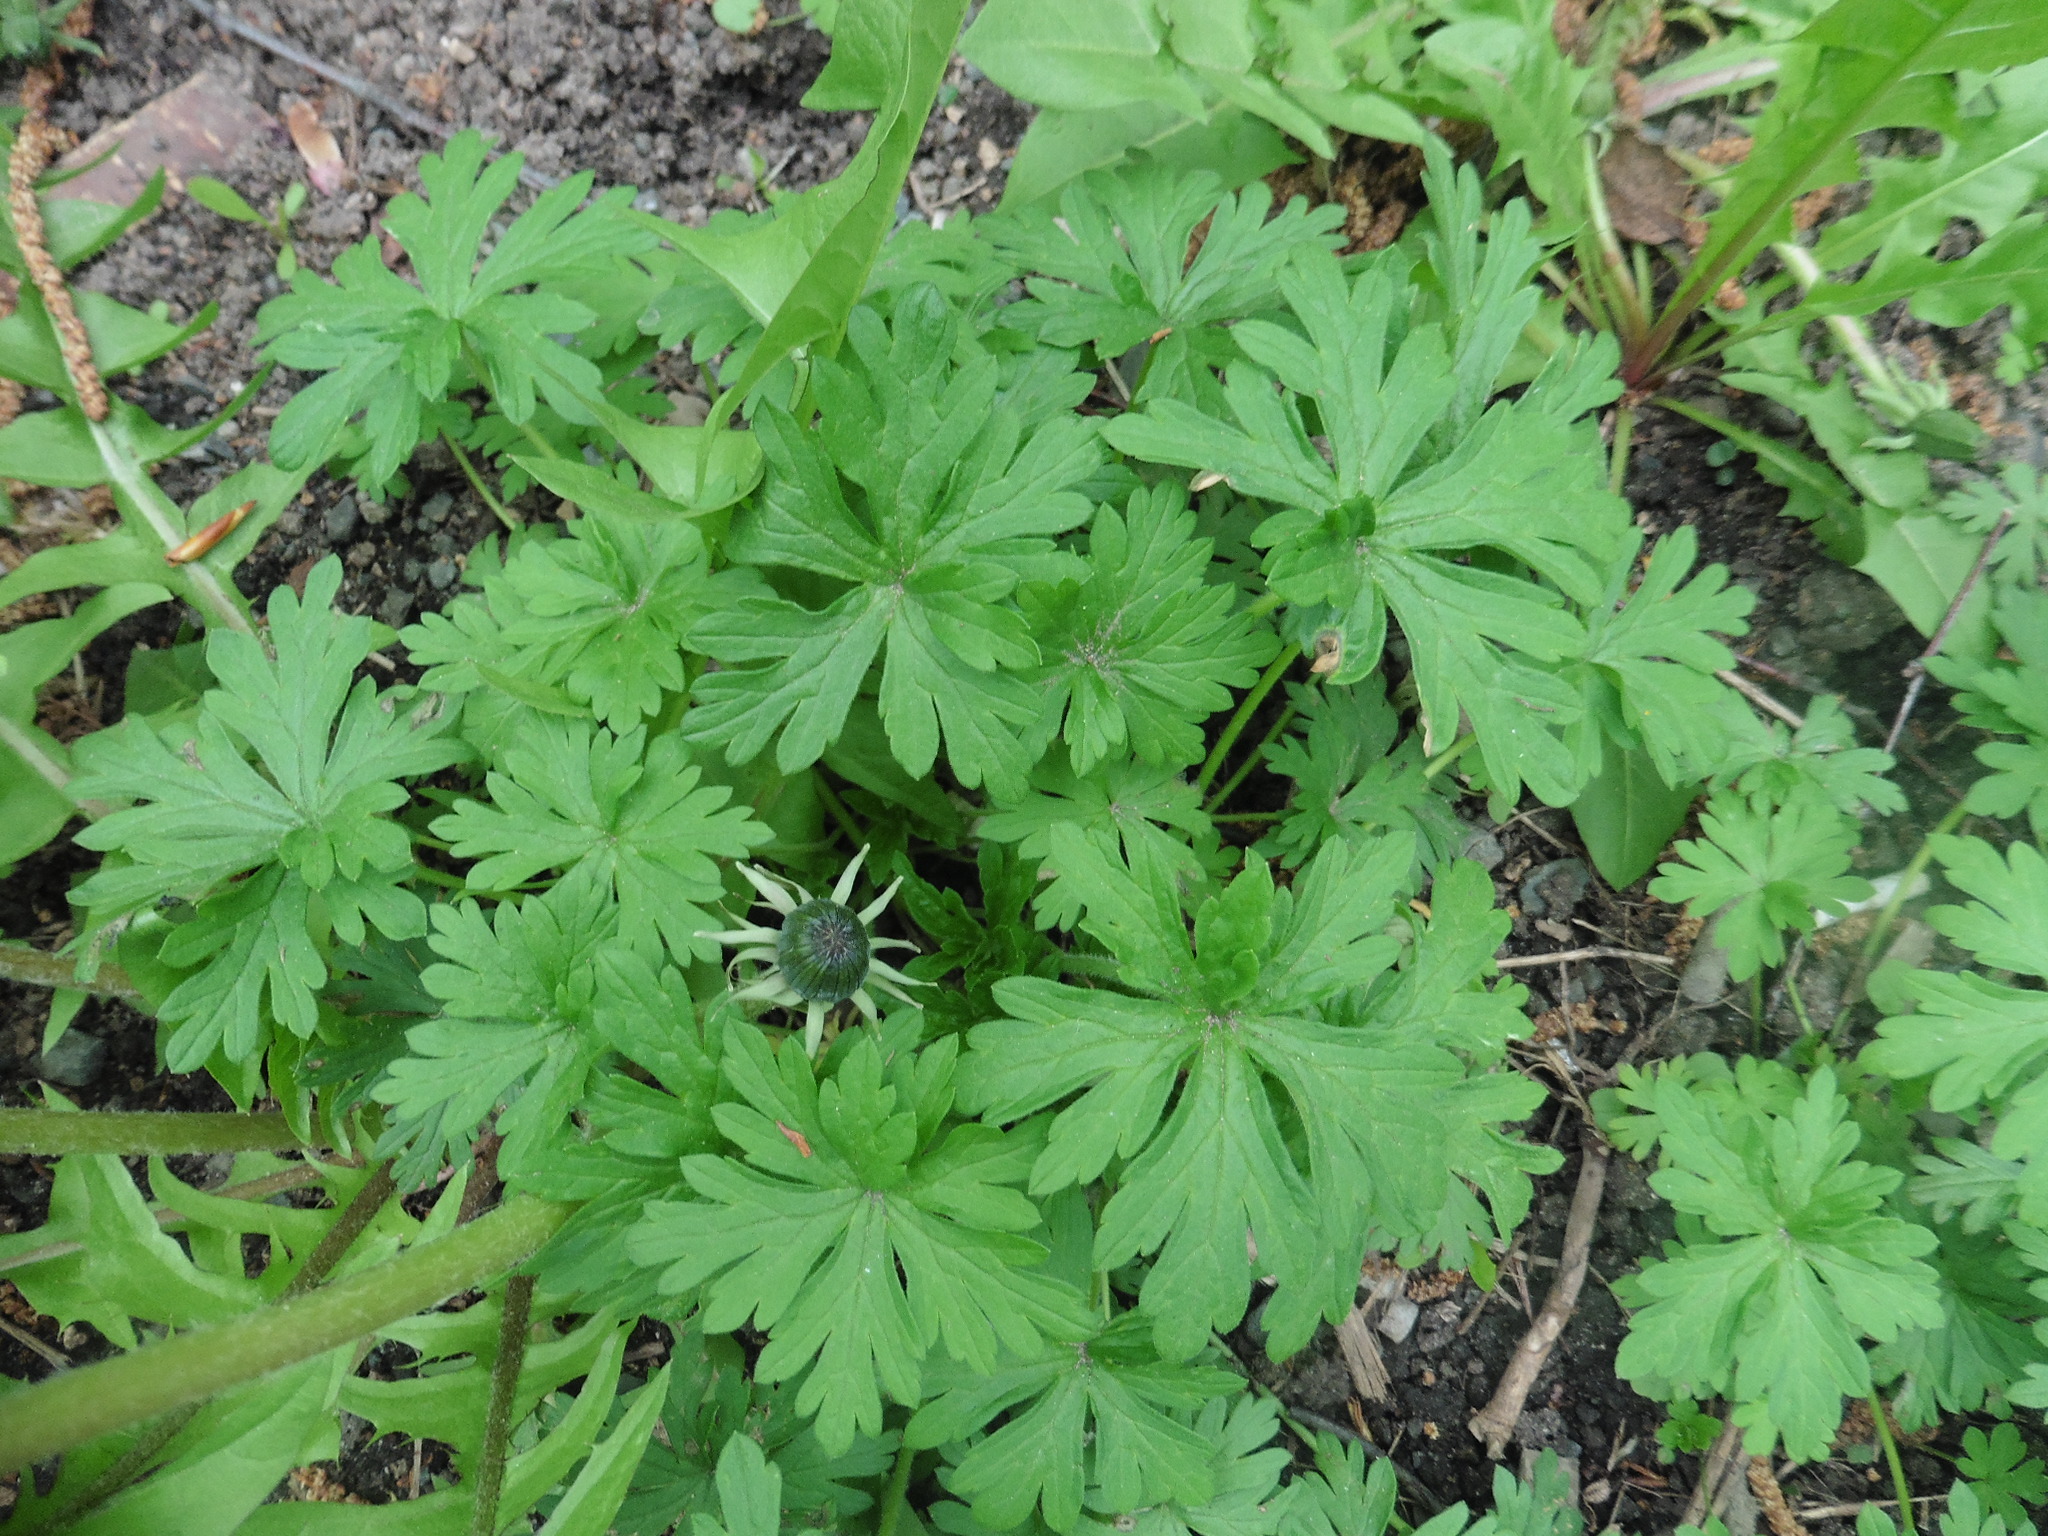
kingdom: Plantae
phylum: Tracheophyta
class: Magnoliopsida
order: Geraniales
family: Geraniaceae
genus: Geranium
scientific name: Geranium sibiricum
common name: Siberian crane's-bill
